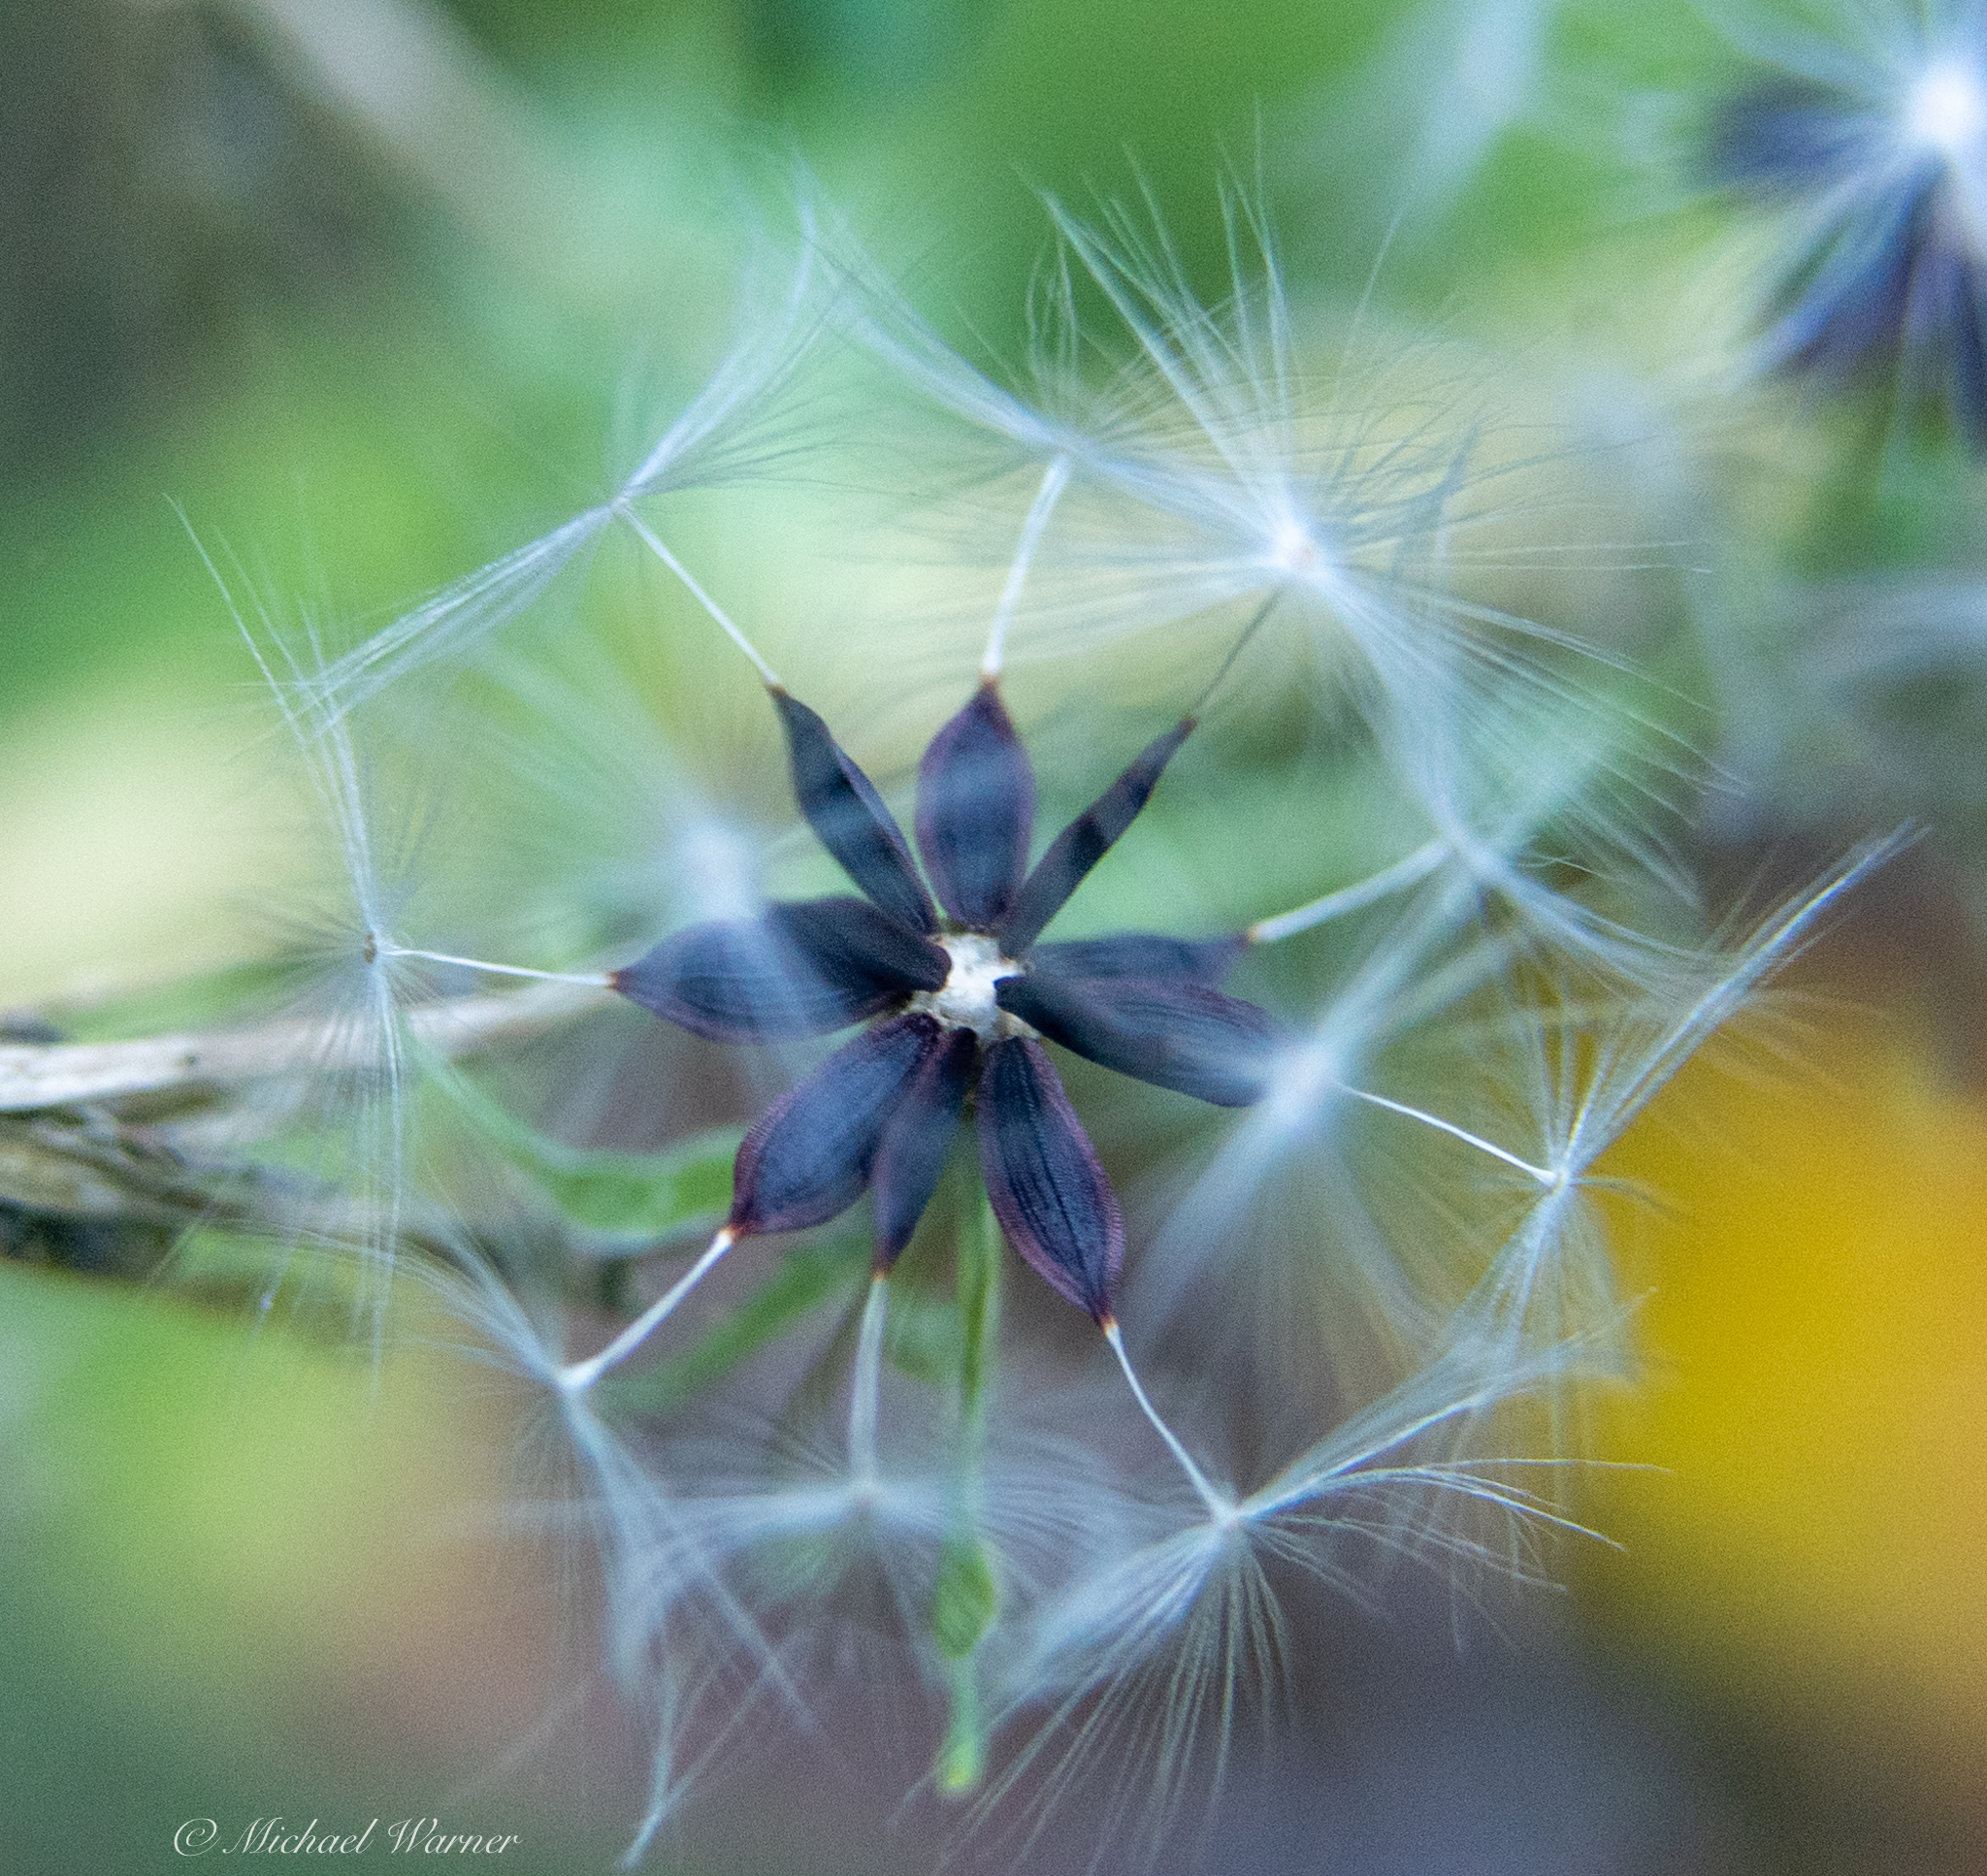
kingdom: Plantae
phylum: Tracheophyta
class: Magnoliopsida
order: Asterales
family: Asteraceae
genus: Lactuca
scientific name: Lactuca virosa
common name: Great lettuce
